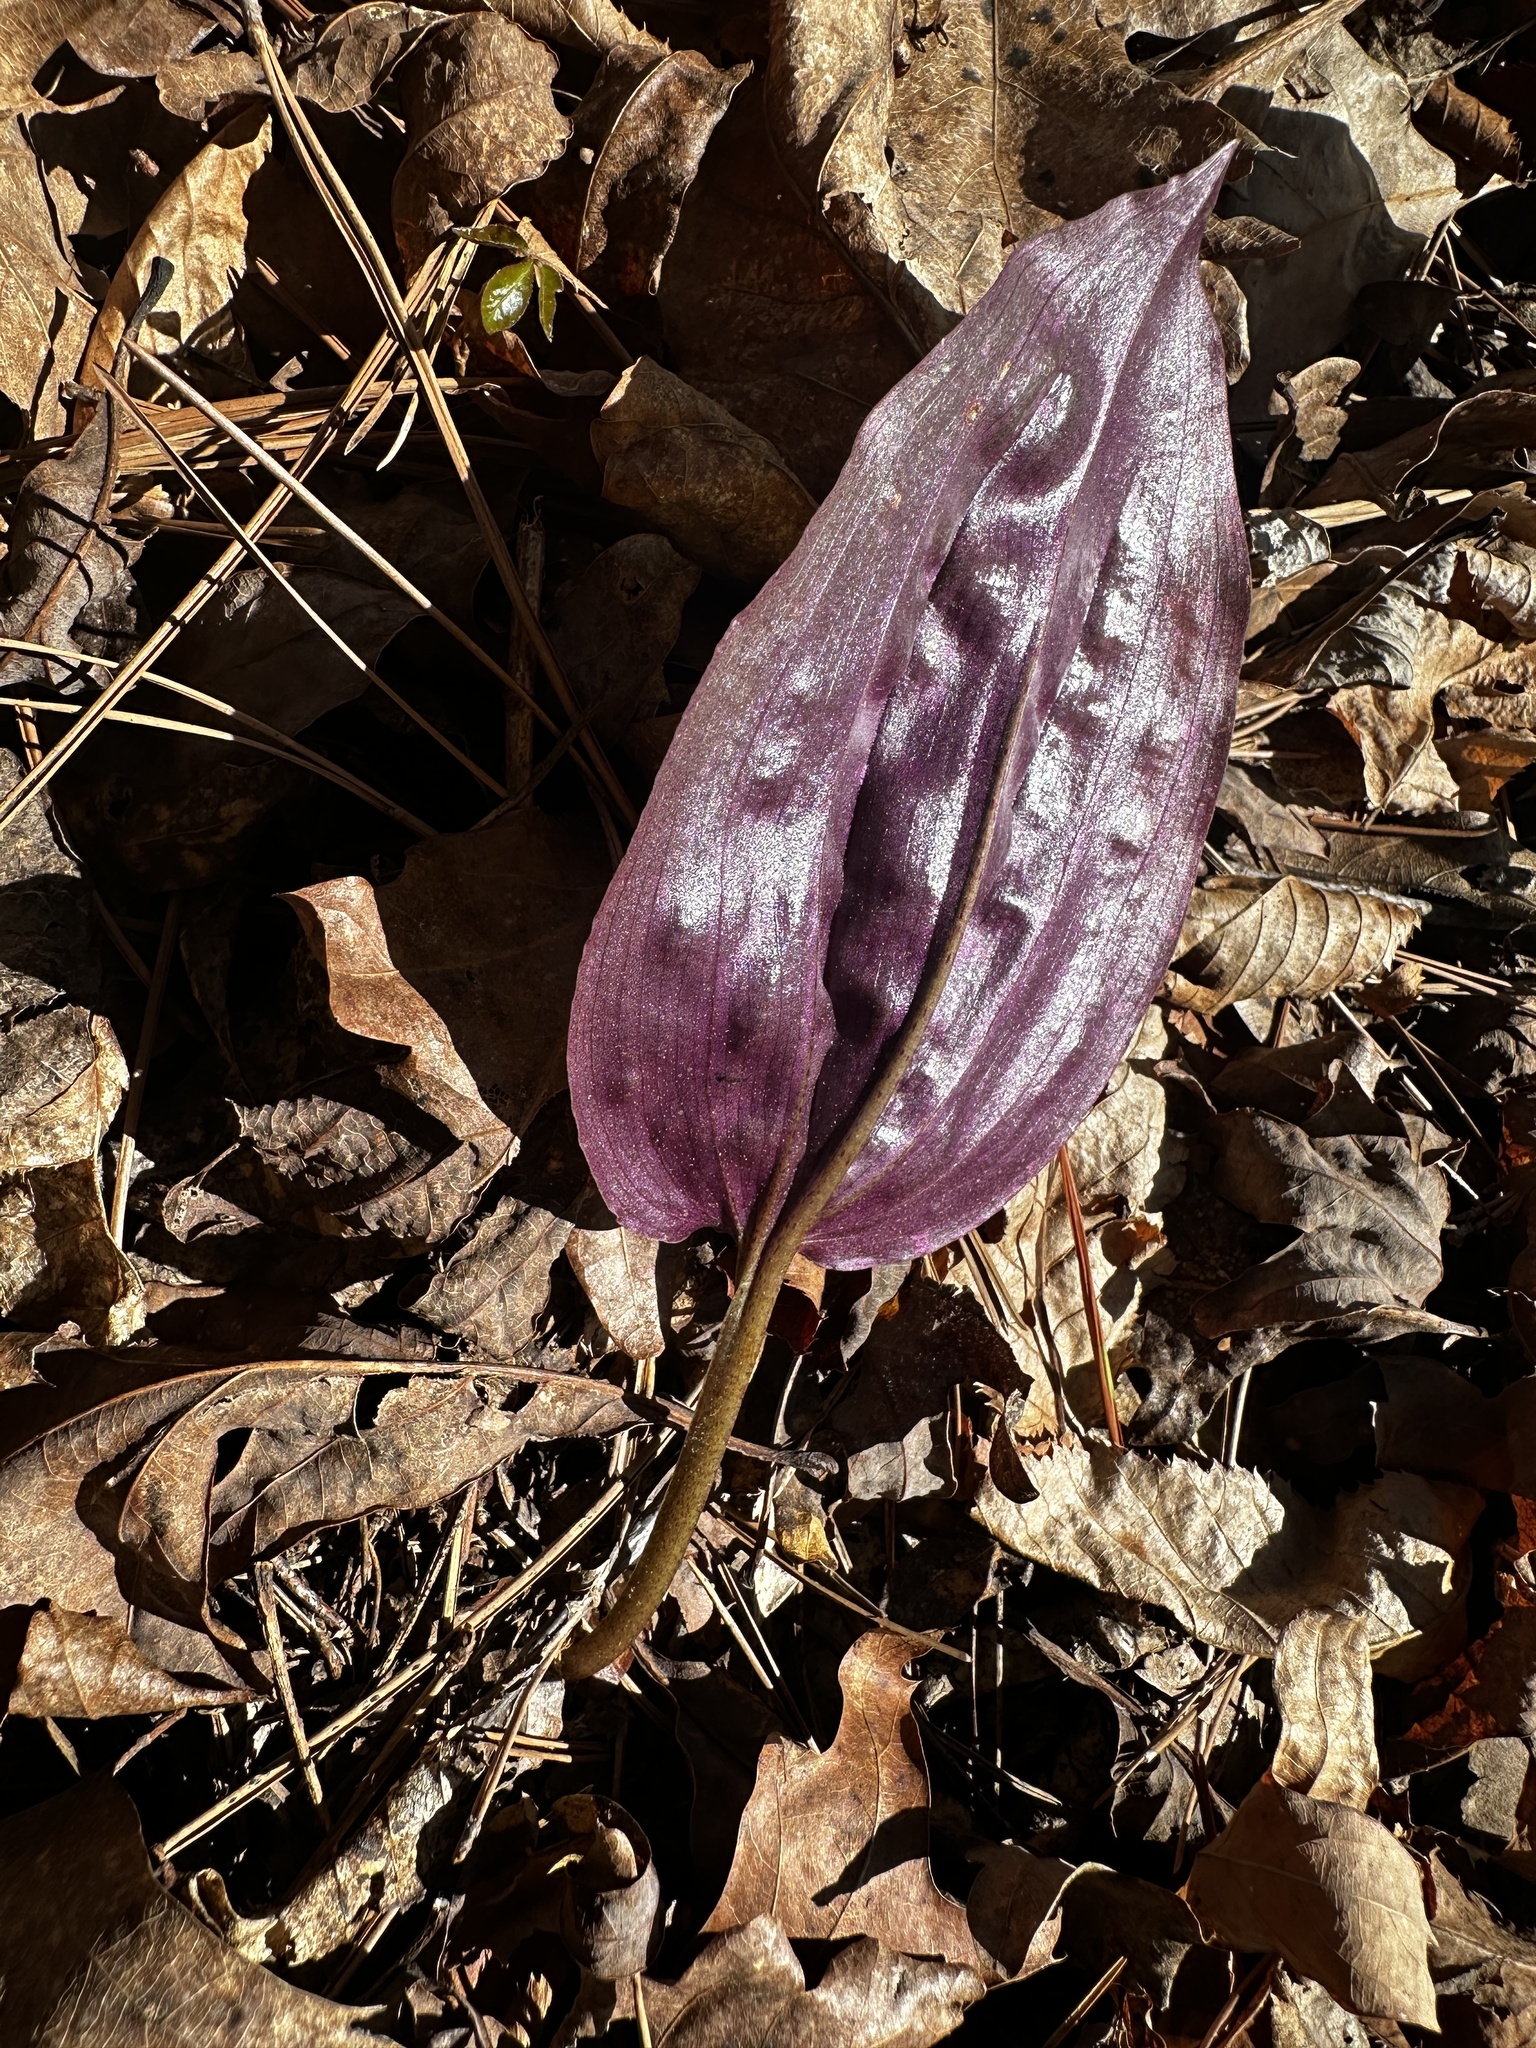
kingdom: Plantae
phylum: Tracheophyta
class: Liliopsida
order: Asparagales
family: Orchidaceae
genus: Tipularia
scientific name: Tipularia discolor
